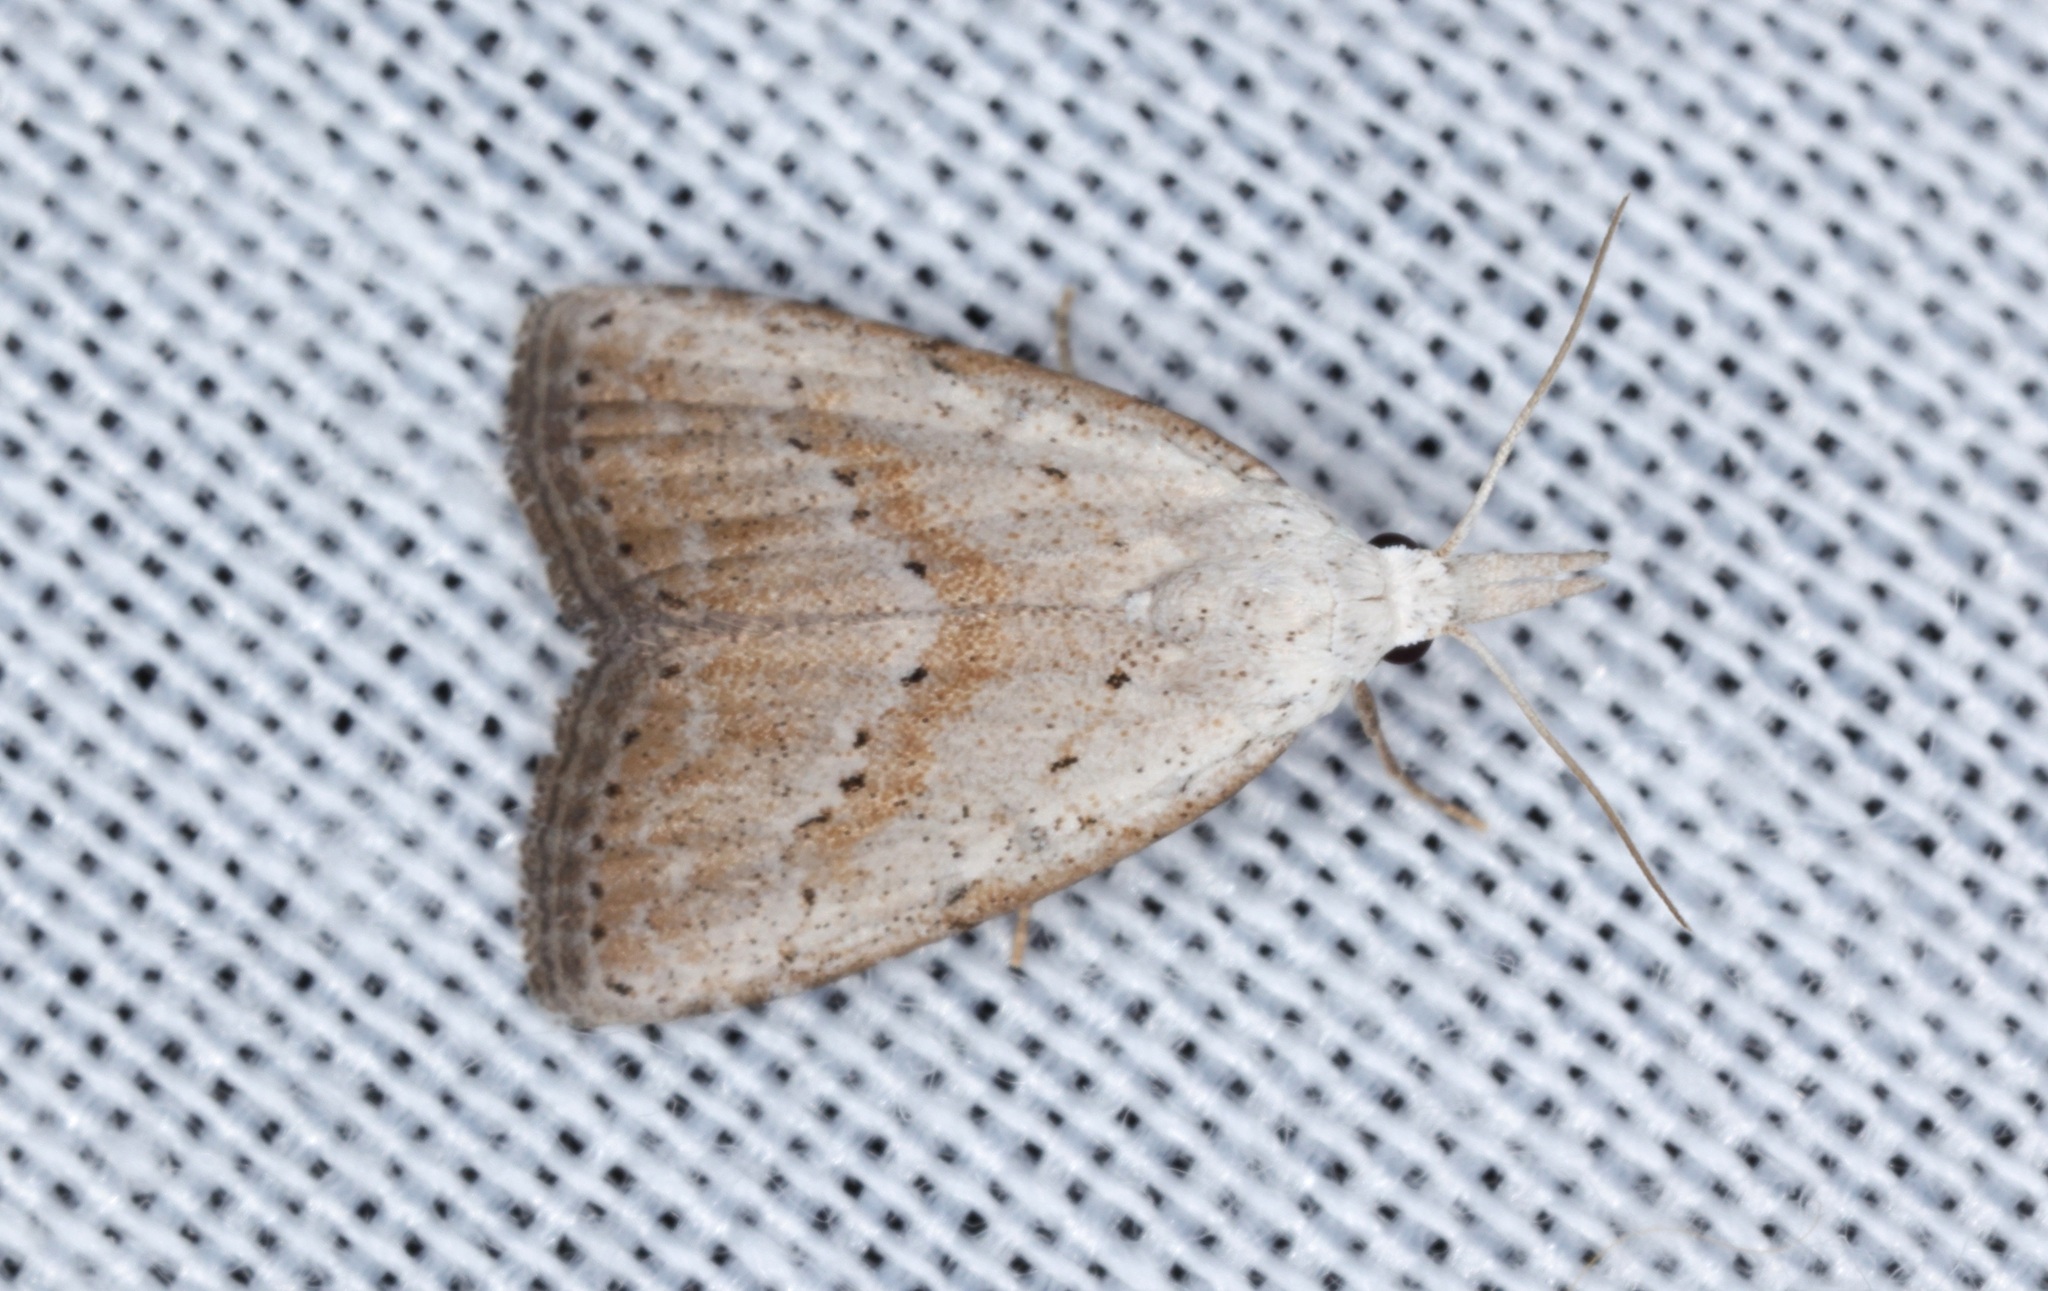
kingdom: Animalia
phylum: Arthropoda
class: Insecta
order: Lepidoptera
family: Nolidae
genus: Meganola
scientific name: Meganola brunellus
